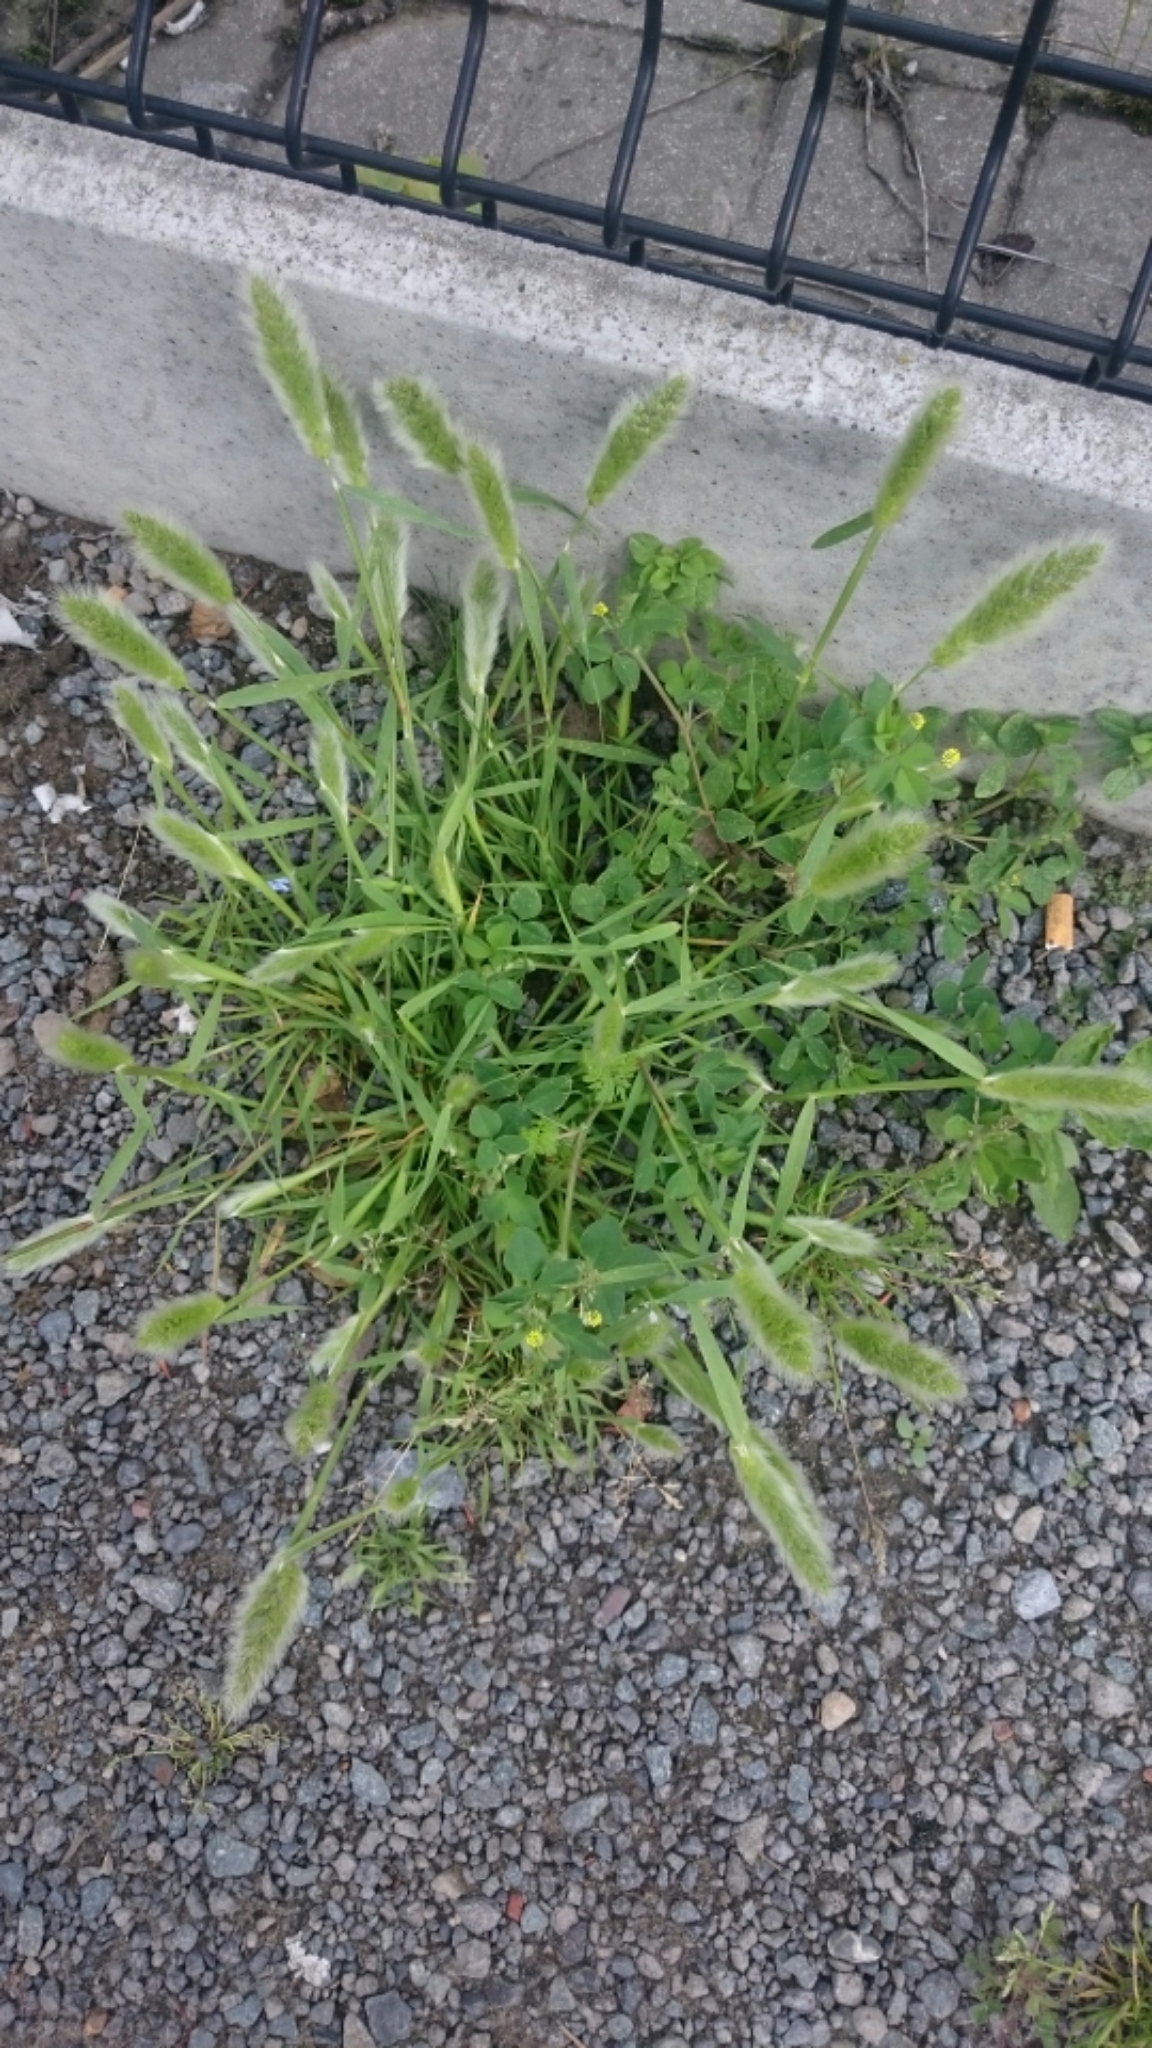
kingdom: Plantae
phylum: Tracheophyta
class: Liliopsida
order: Poales
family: Poaceae
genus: Polypogon
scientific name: Polypogon monspeliensis
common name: Annual rabbitsfoot grass
